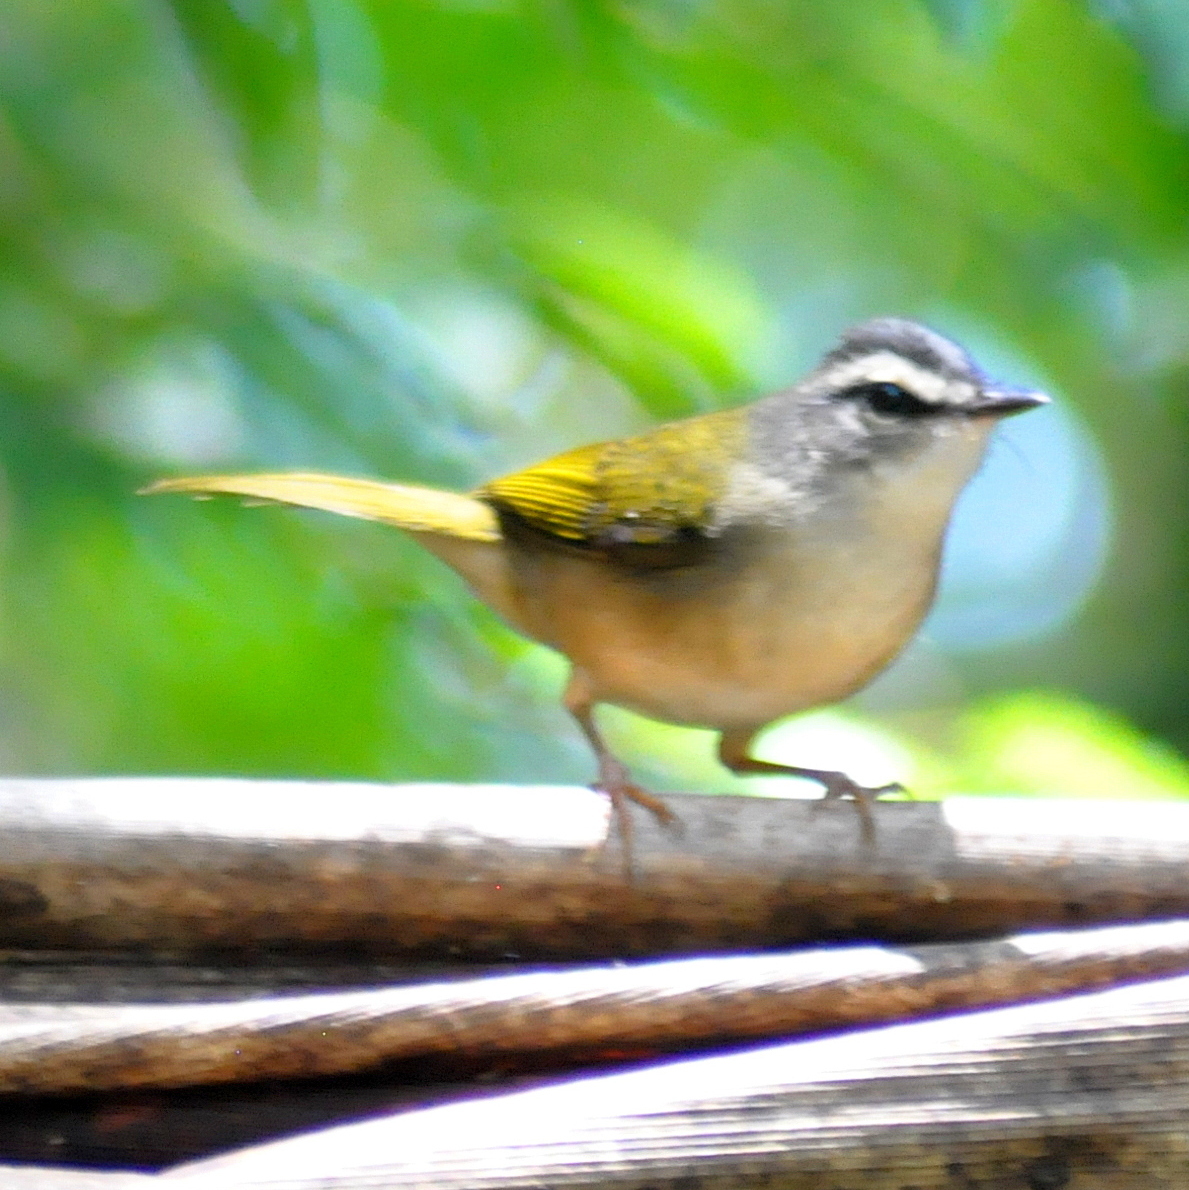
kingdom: Animalia
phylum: Chordata
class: Aves
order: Passeriformes
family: Parulidae
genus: Myiothlypis
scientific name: Myiothlypis rivularis
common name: Riverbank warbler
